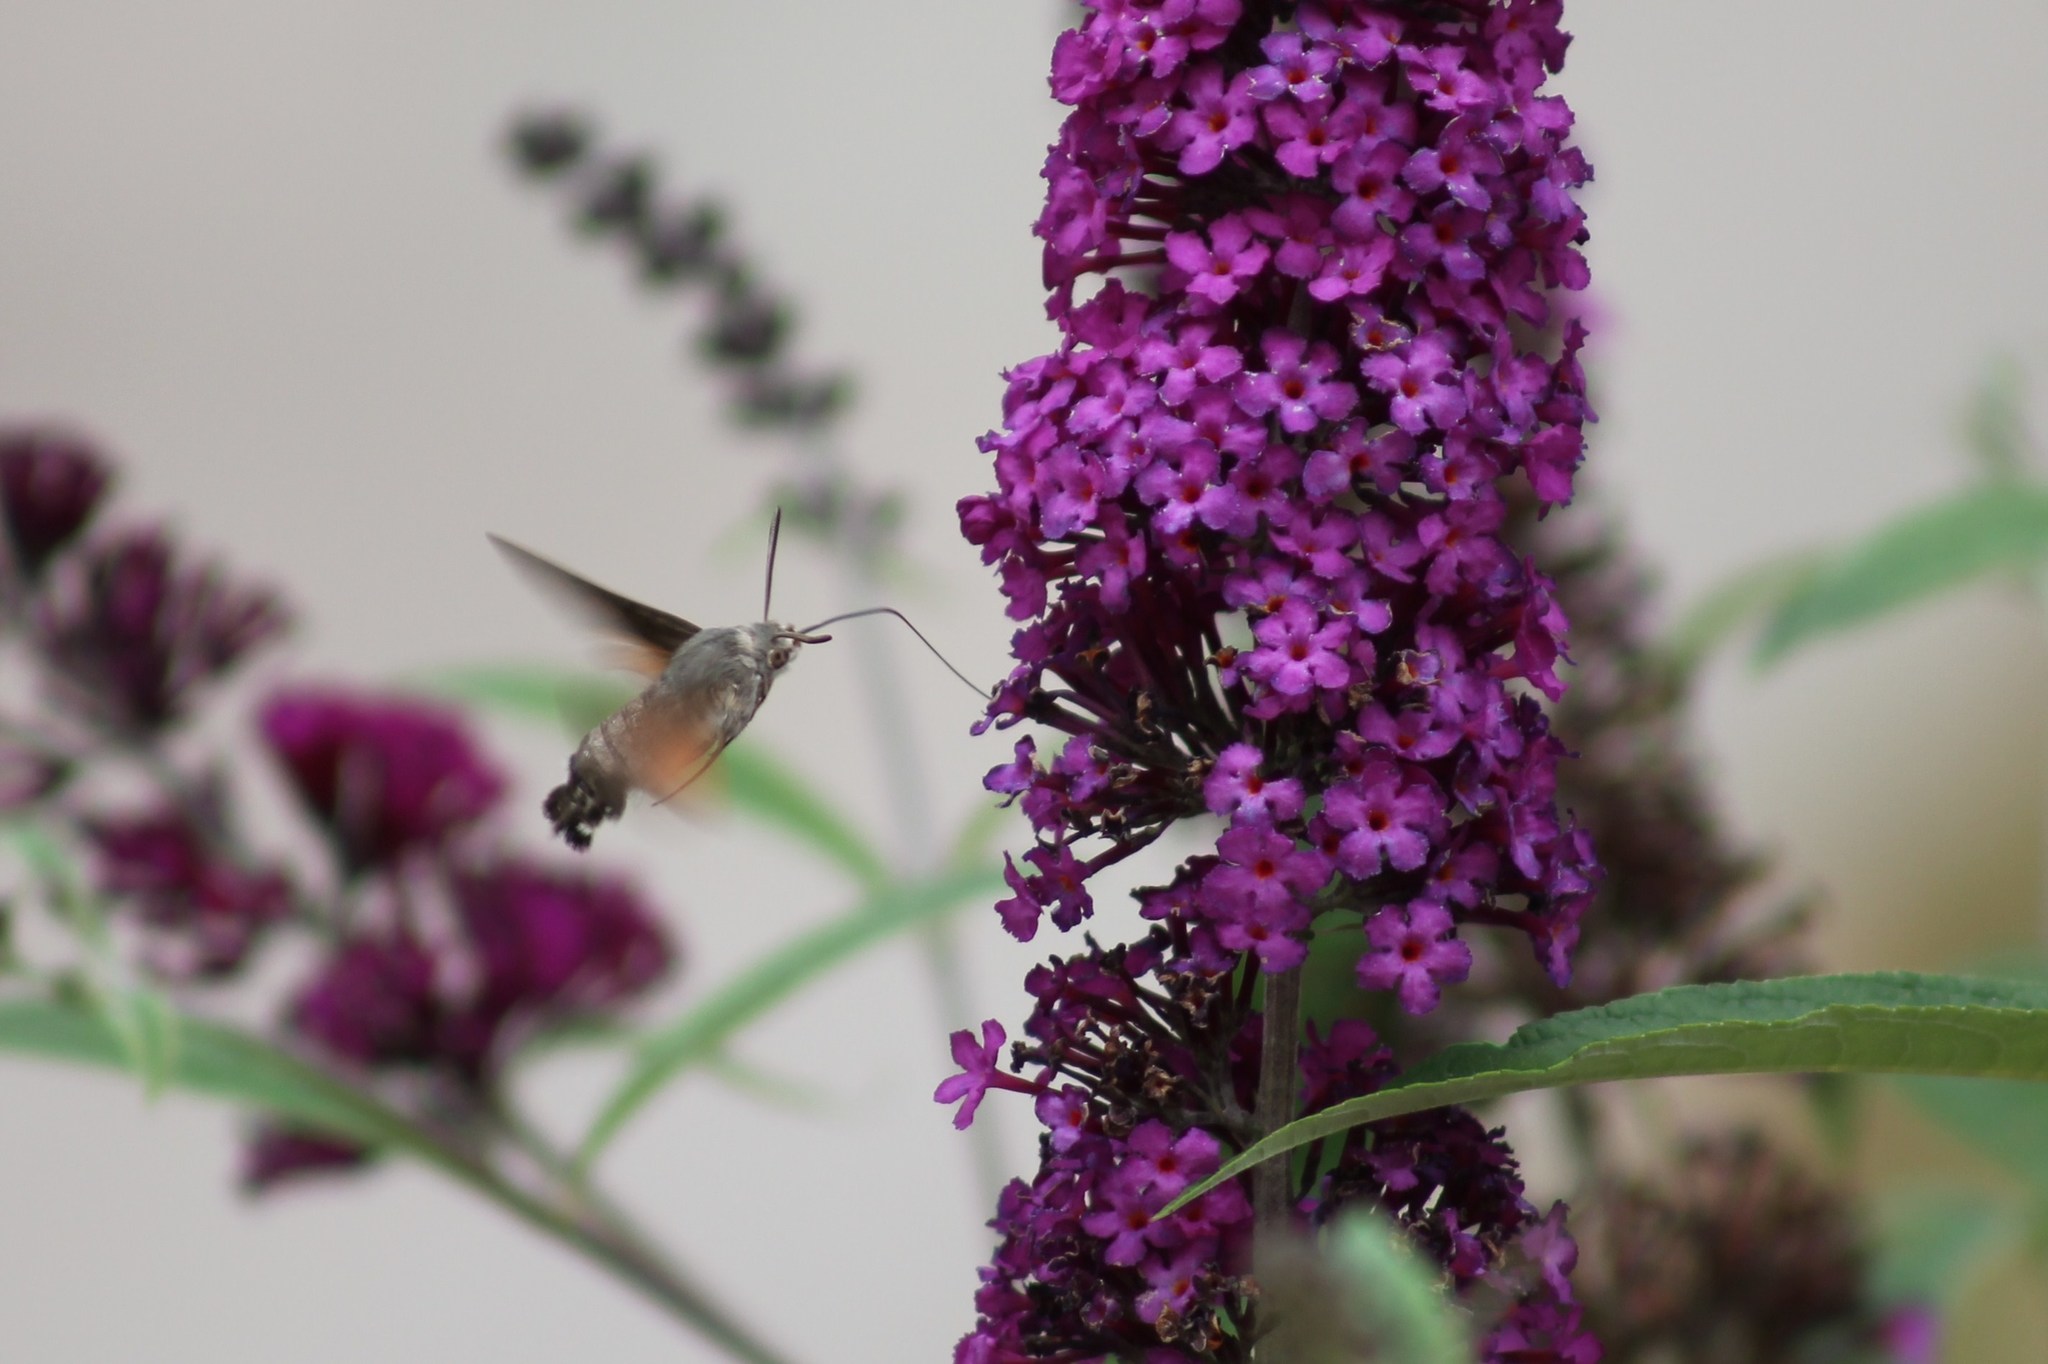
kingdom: Animalia
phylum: Arthropoda
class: Insecta
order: Lepidoptera
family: Sphingidae
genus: Macroglossum
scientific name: Macroglossum stellatarum
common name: Humming-bird hawk-moth
